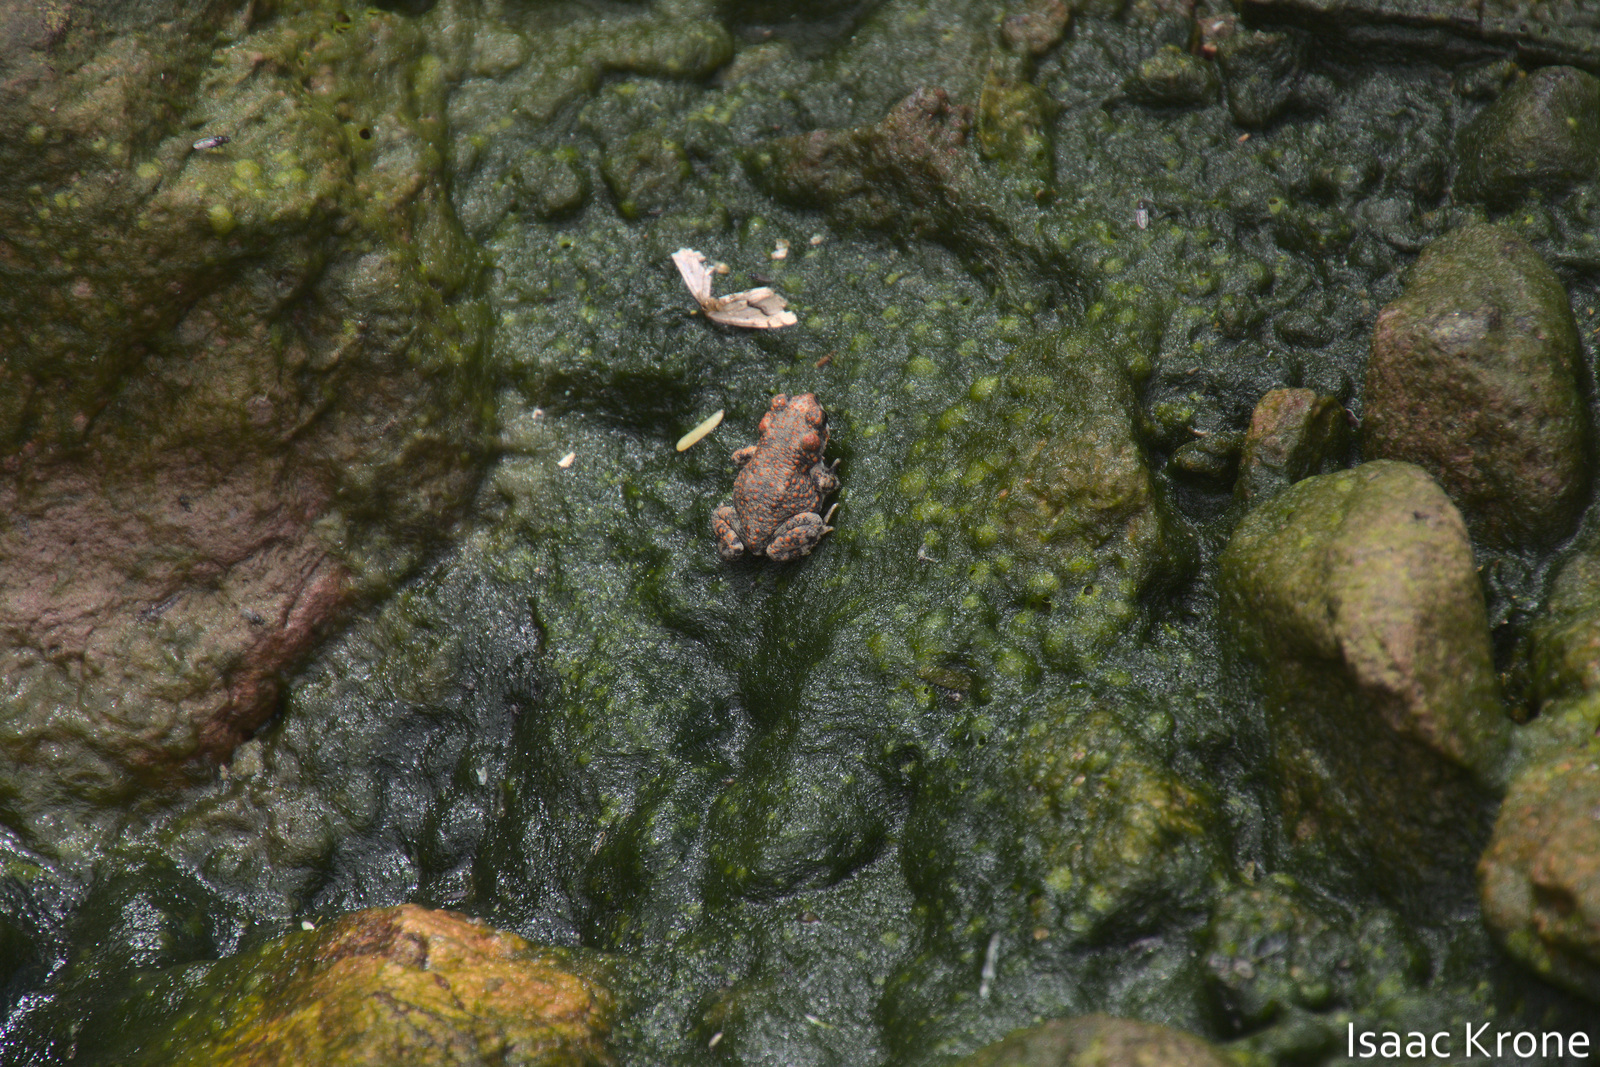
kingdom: Animalia
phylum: Chordata
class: Amphibia
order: Anura
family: Bufonidae
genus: Anaxyrus
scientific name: Anaxyrus punctatus
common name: Red-spotted toad
